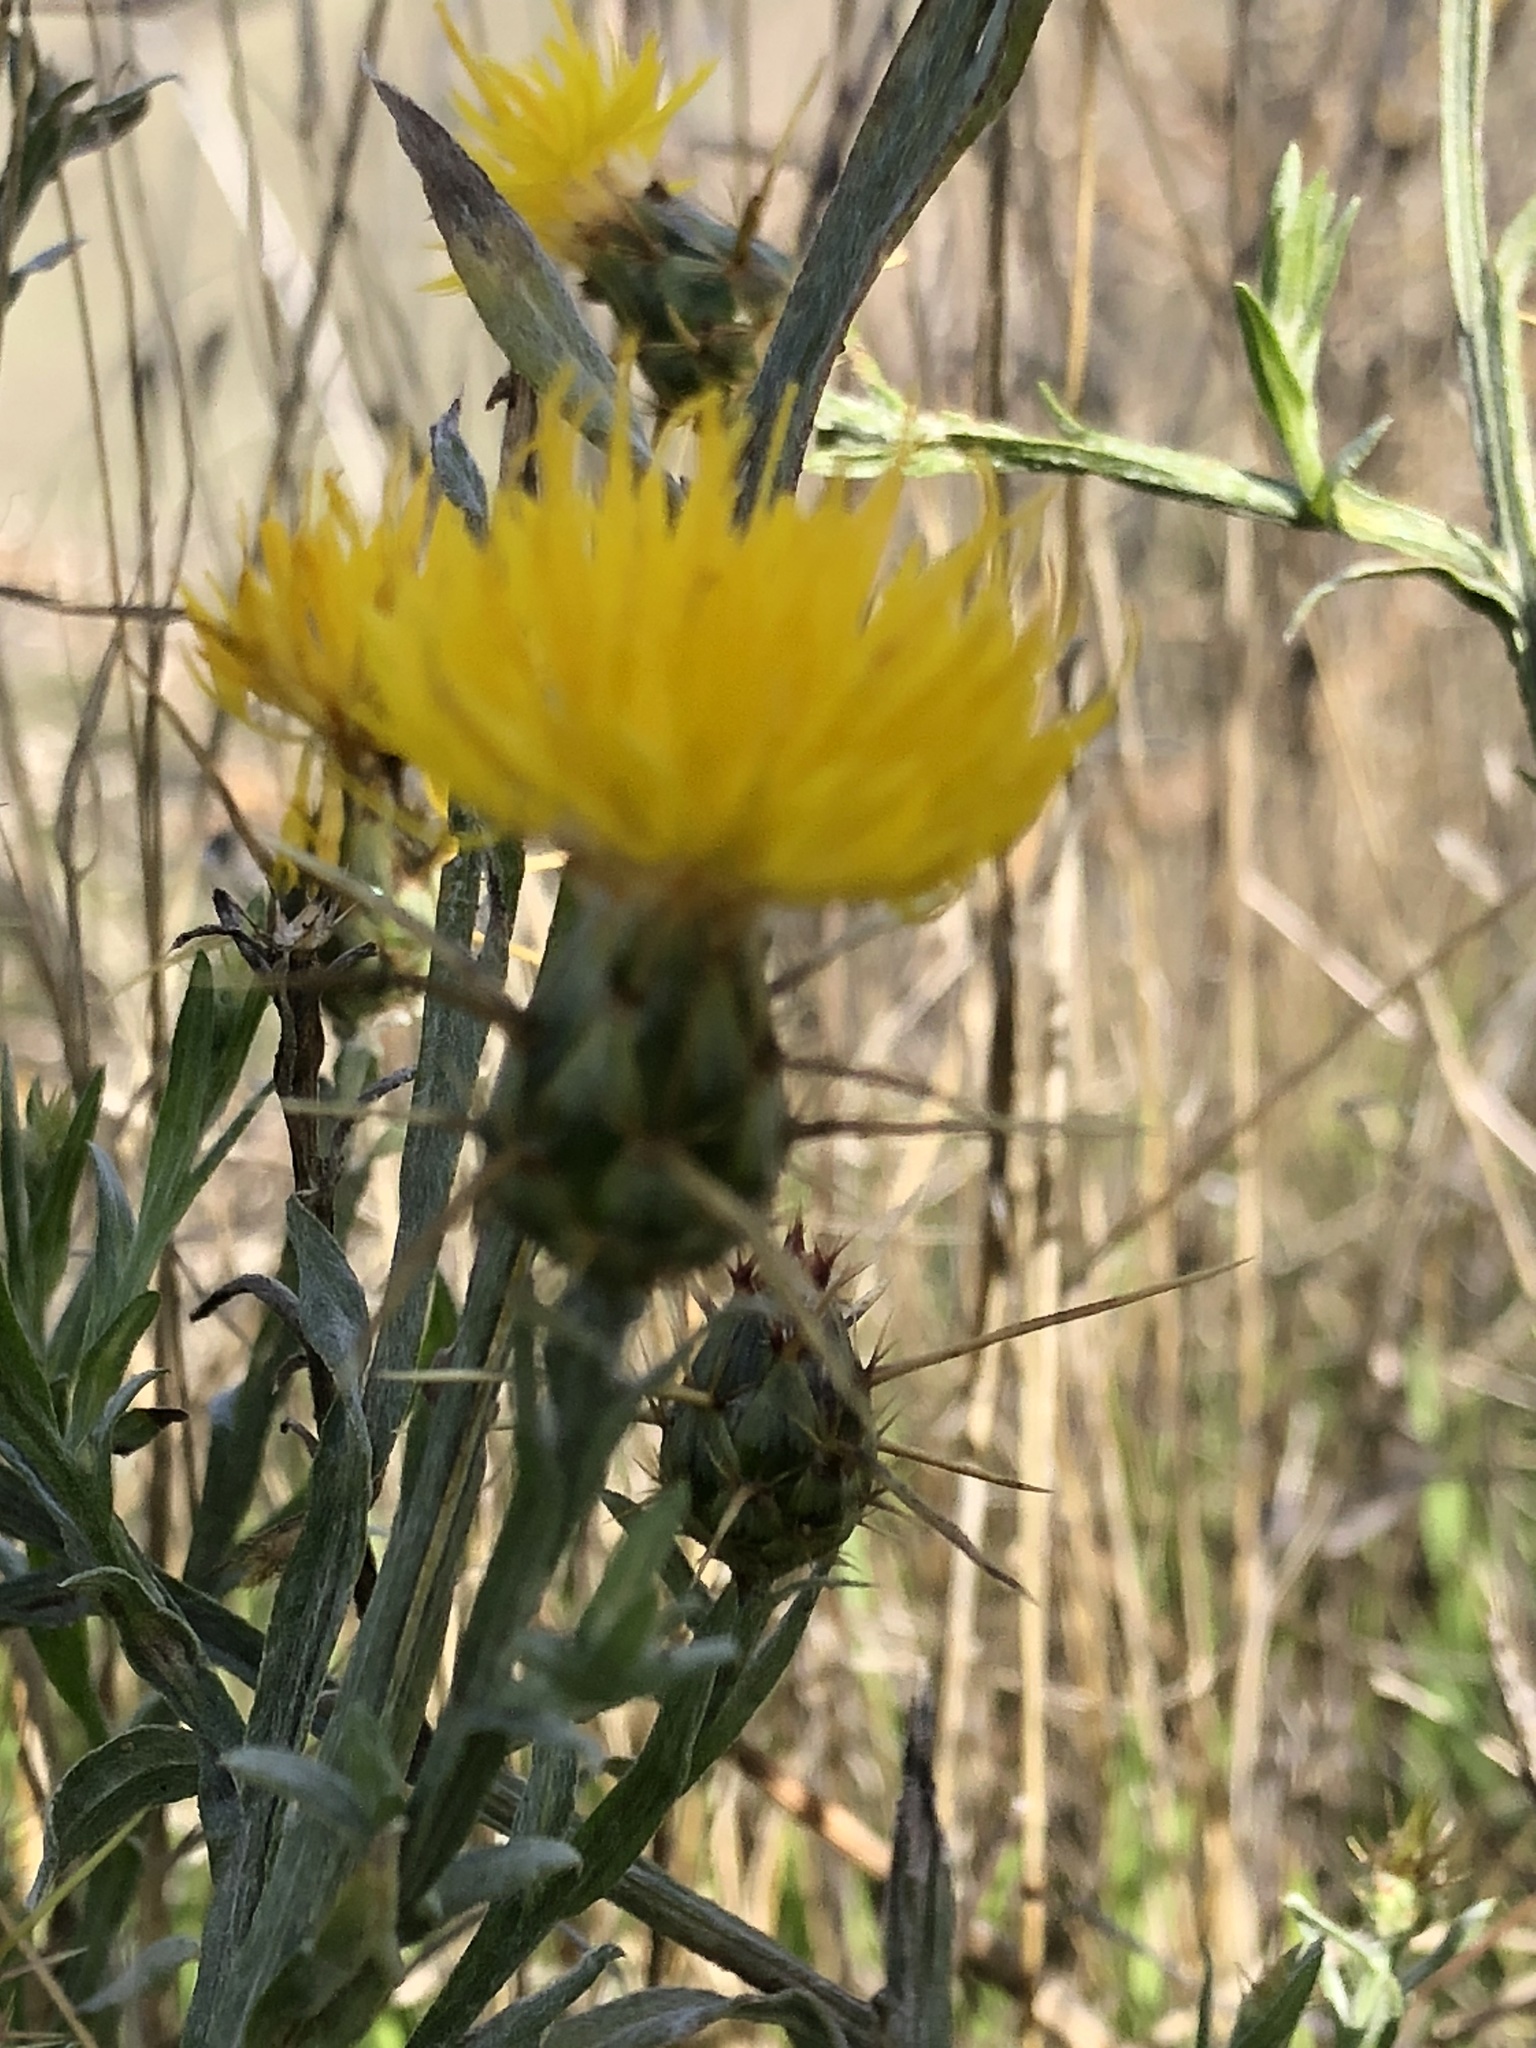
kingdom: Plantae
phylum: Tracheophyta
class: Magnoliopsida
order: Asterales
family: Asteraceae
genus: Centaurea
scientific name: Centaurea solstitialis
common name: Yellow star-thistle
